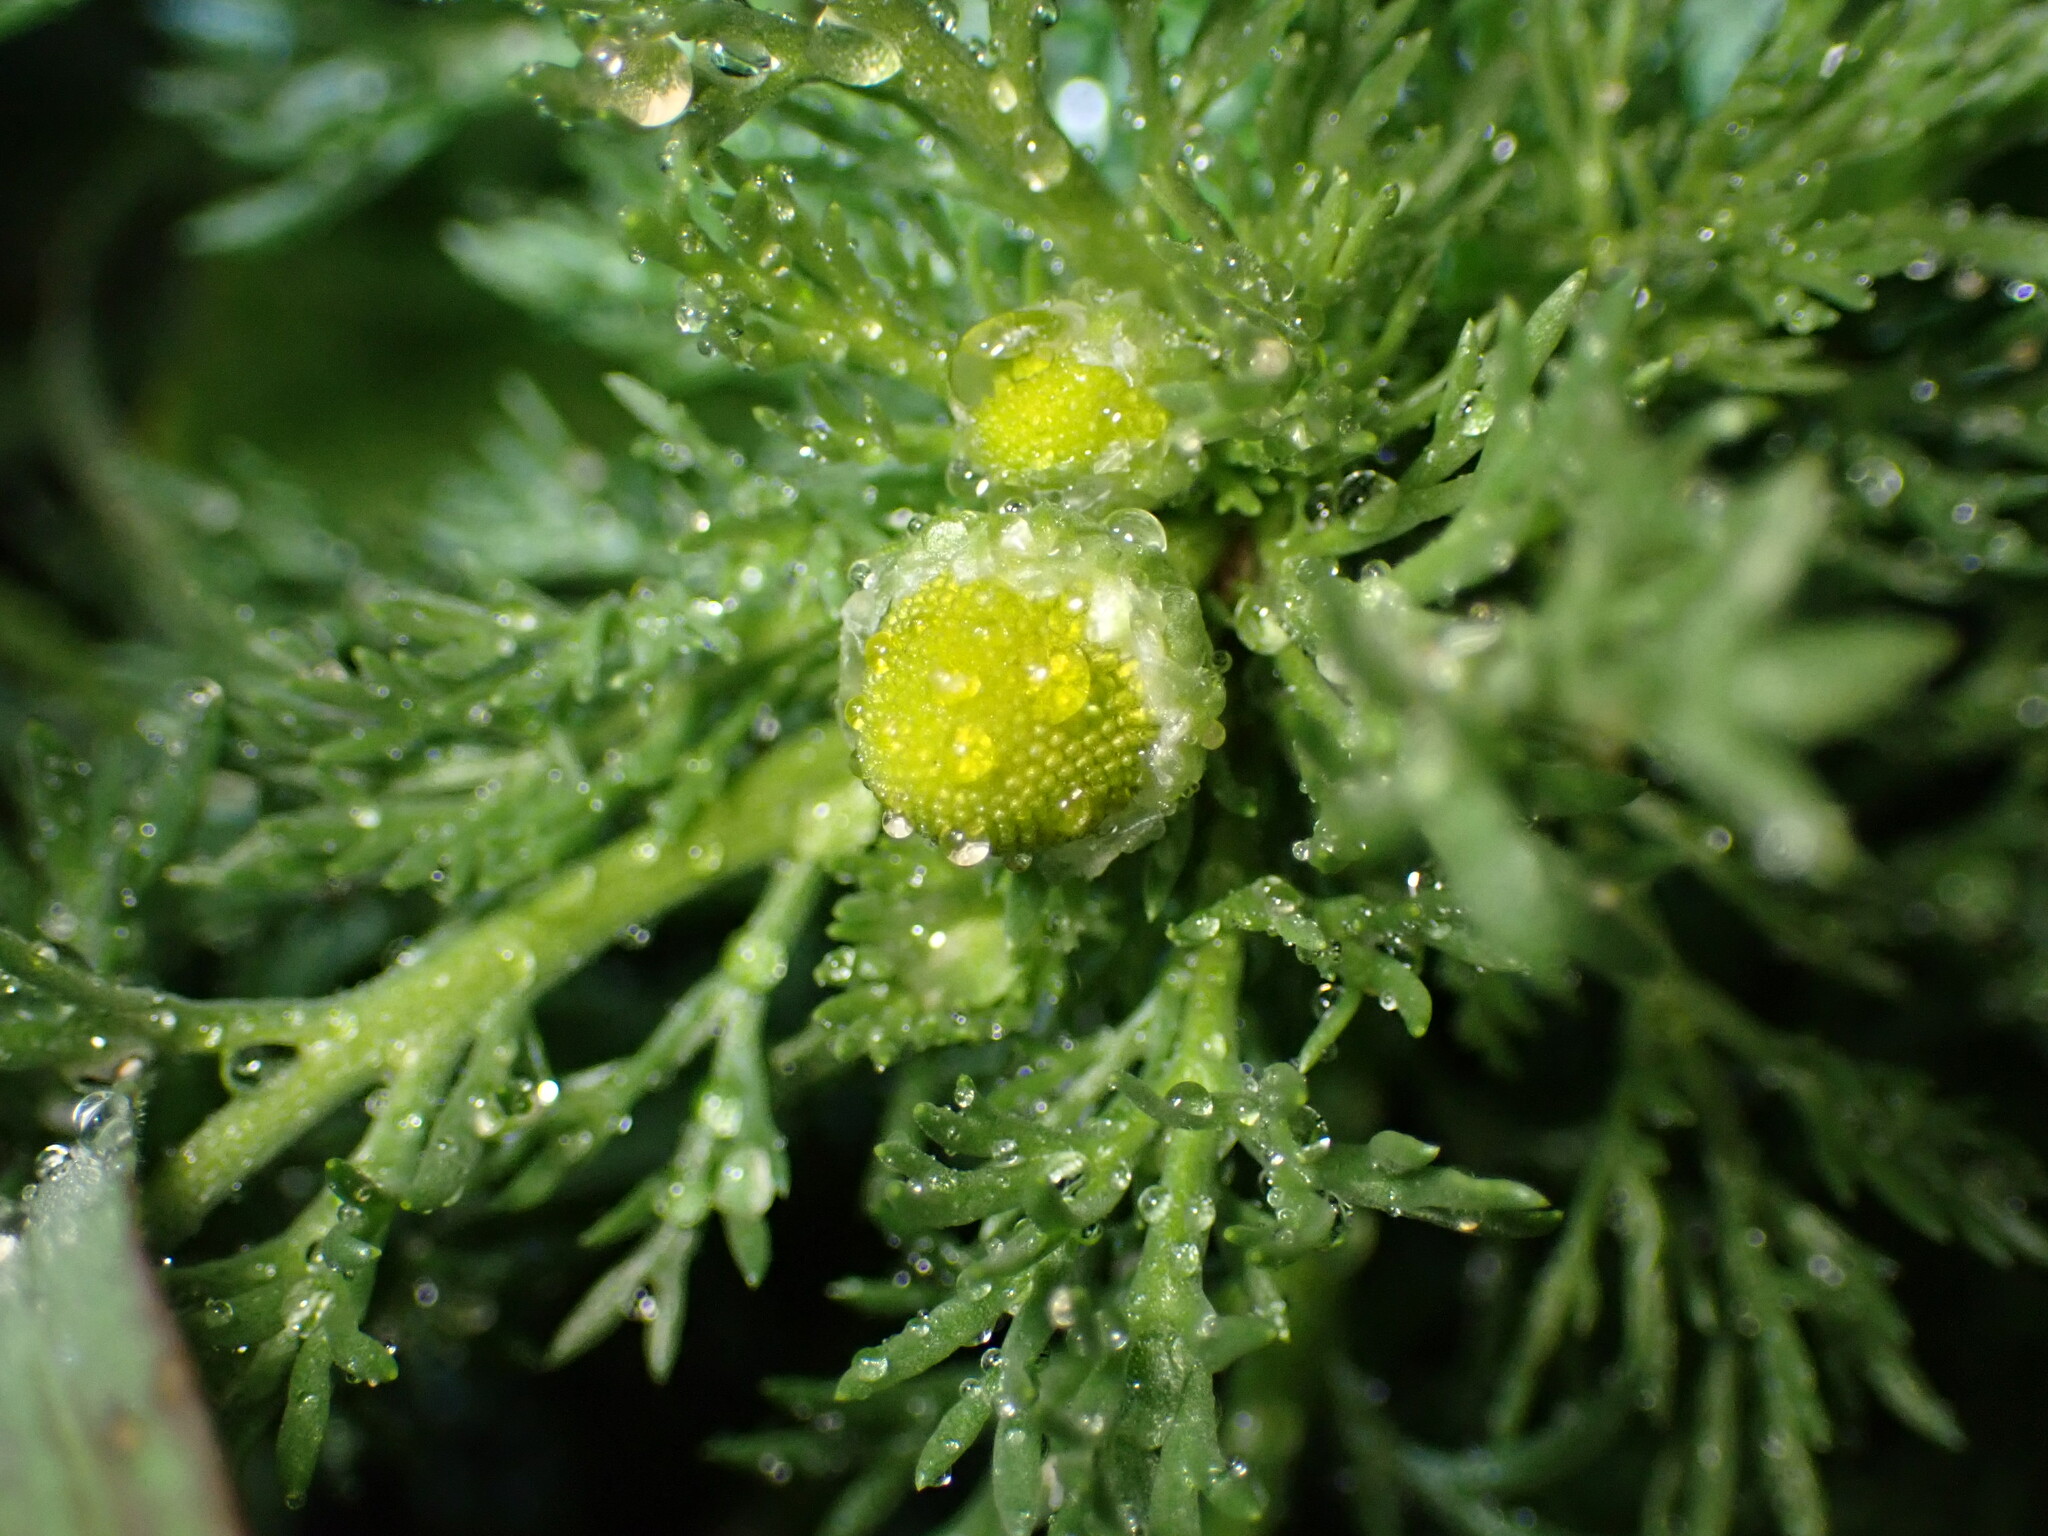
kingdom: Plantae
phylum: Tracheophyta
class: Magnoliopsida
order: Asterales
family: Asteraceae
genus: Matricaria
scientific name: Matricaria discoidea
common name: Disc mayweed
